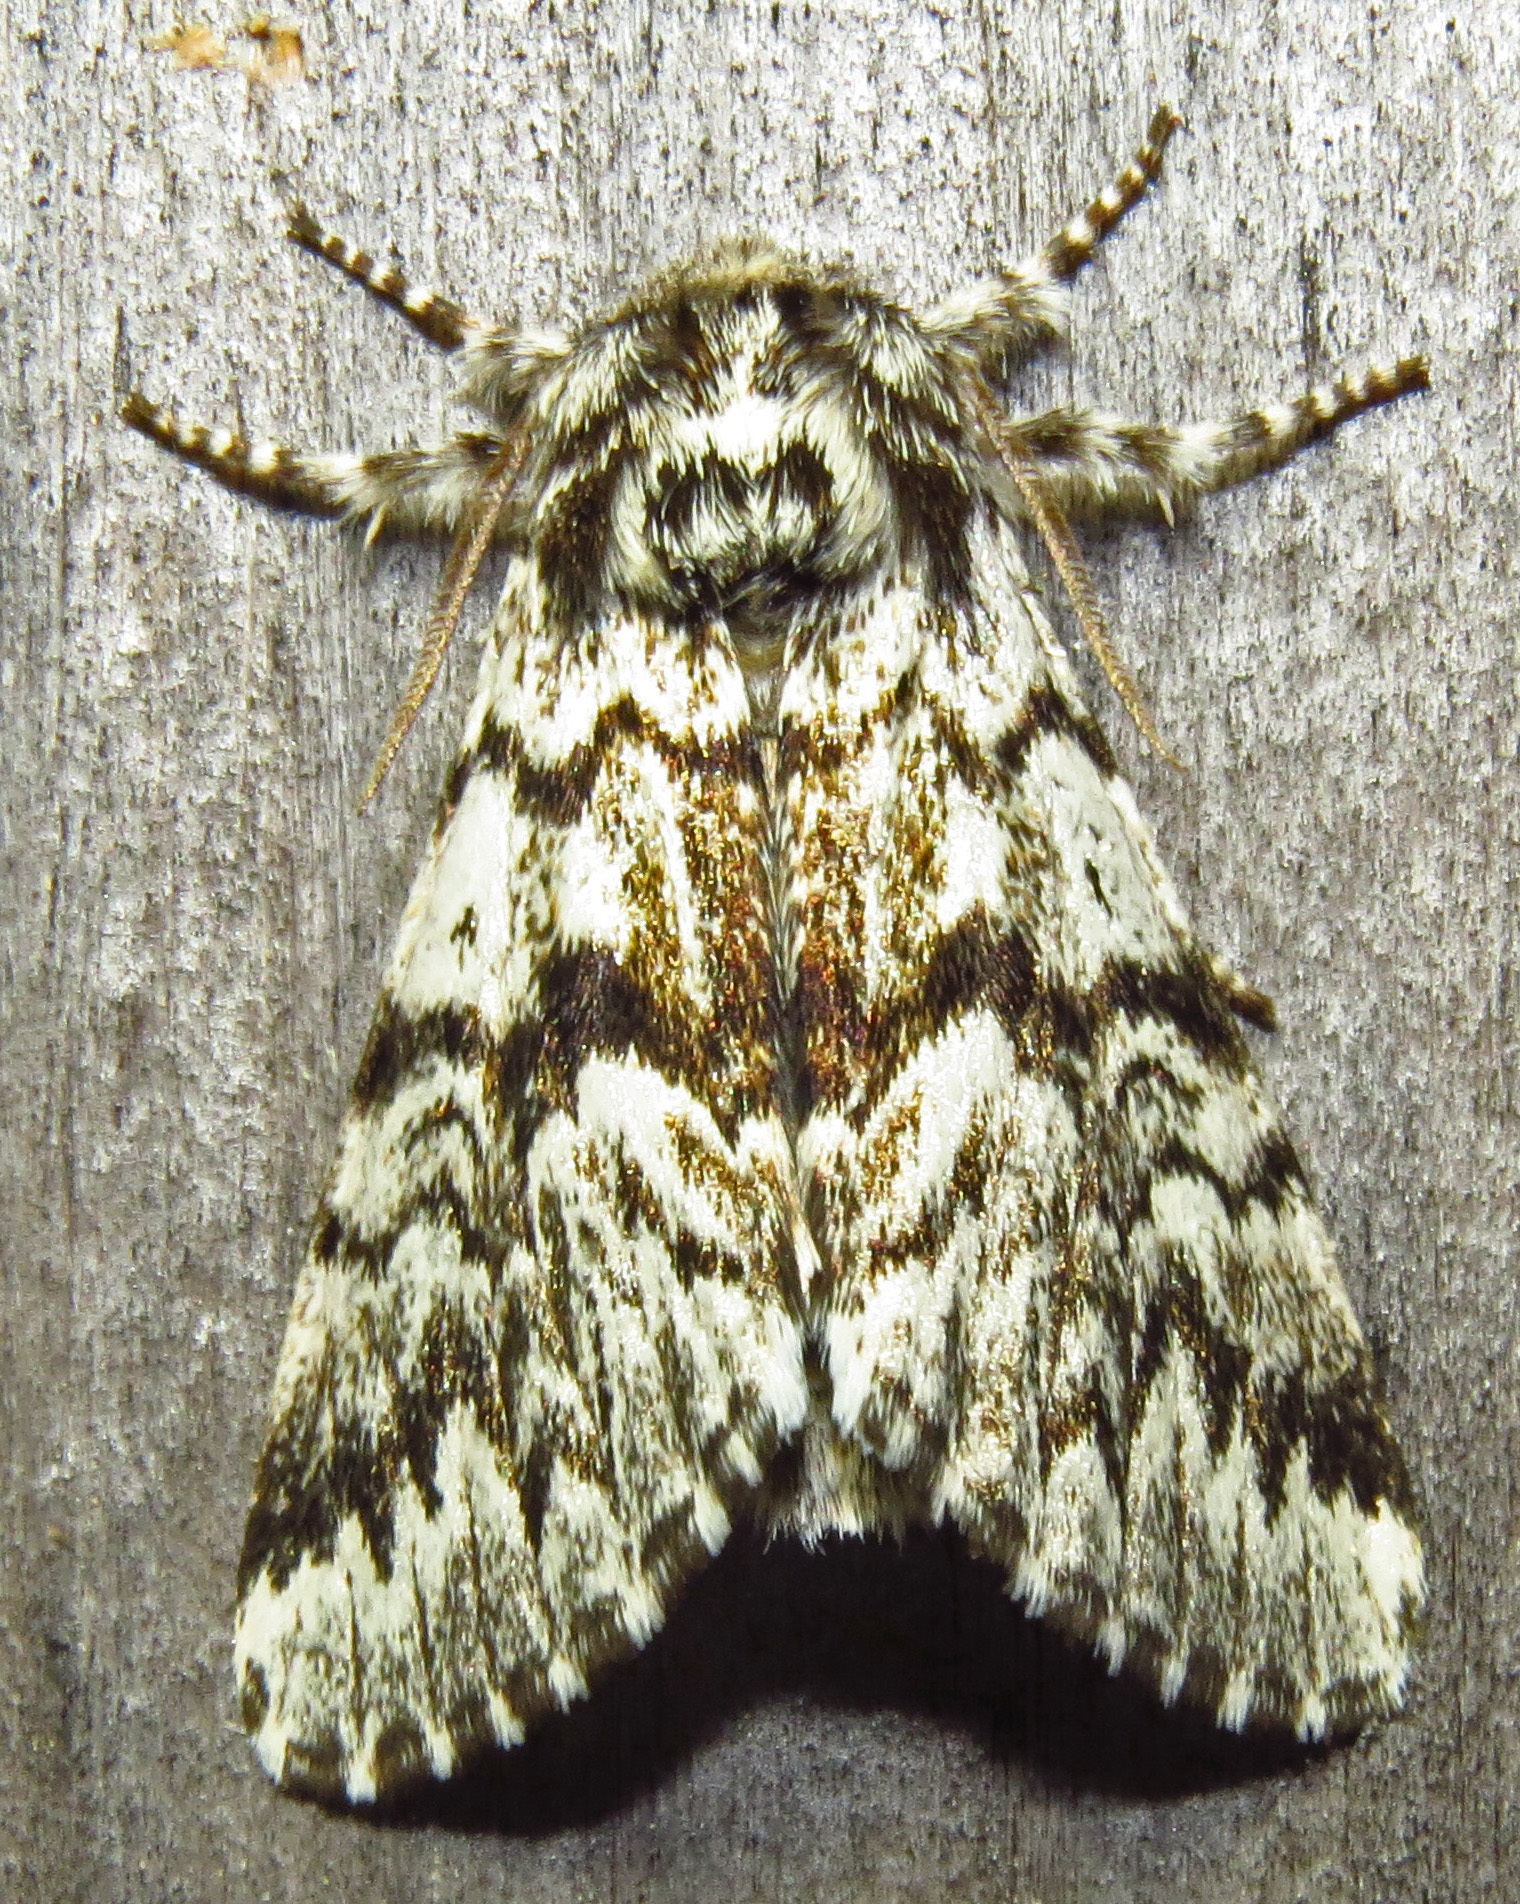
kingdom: Animalia
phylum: Arthropoda
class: Insecta
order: Lepidoptera
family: Noctuidae
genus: Panthea
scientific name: Panthea acronyctoides
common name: Black zigzag moth
